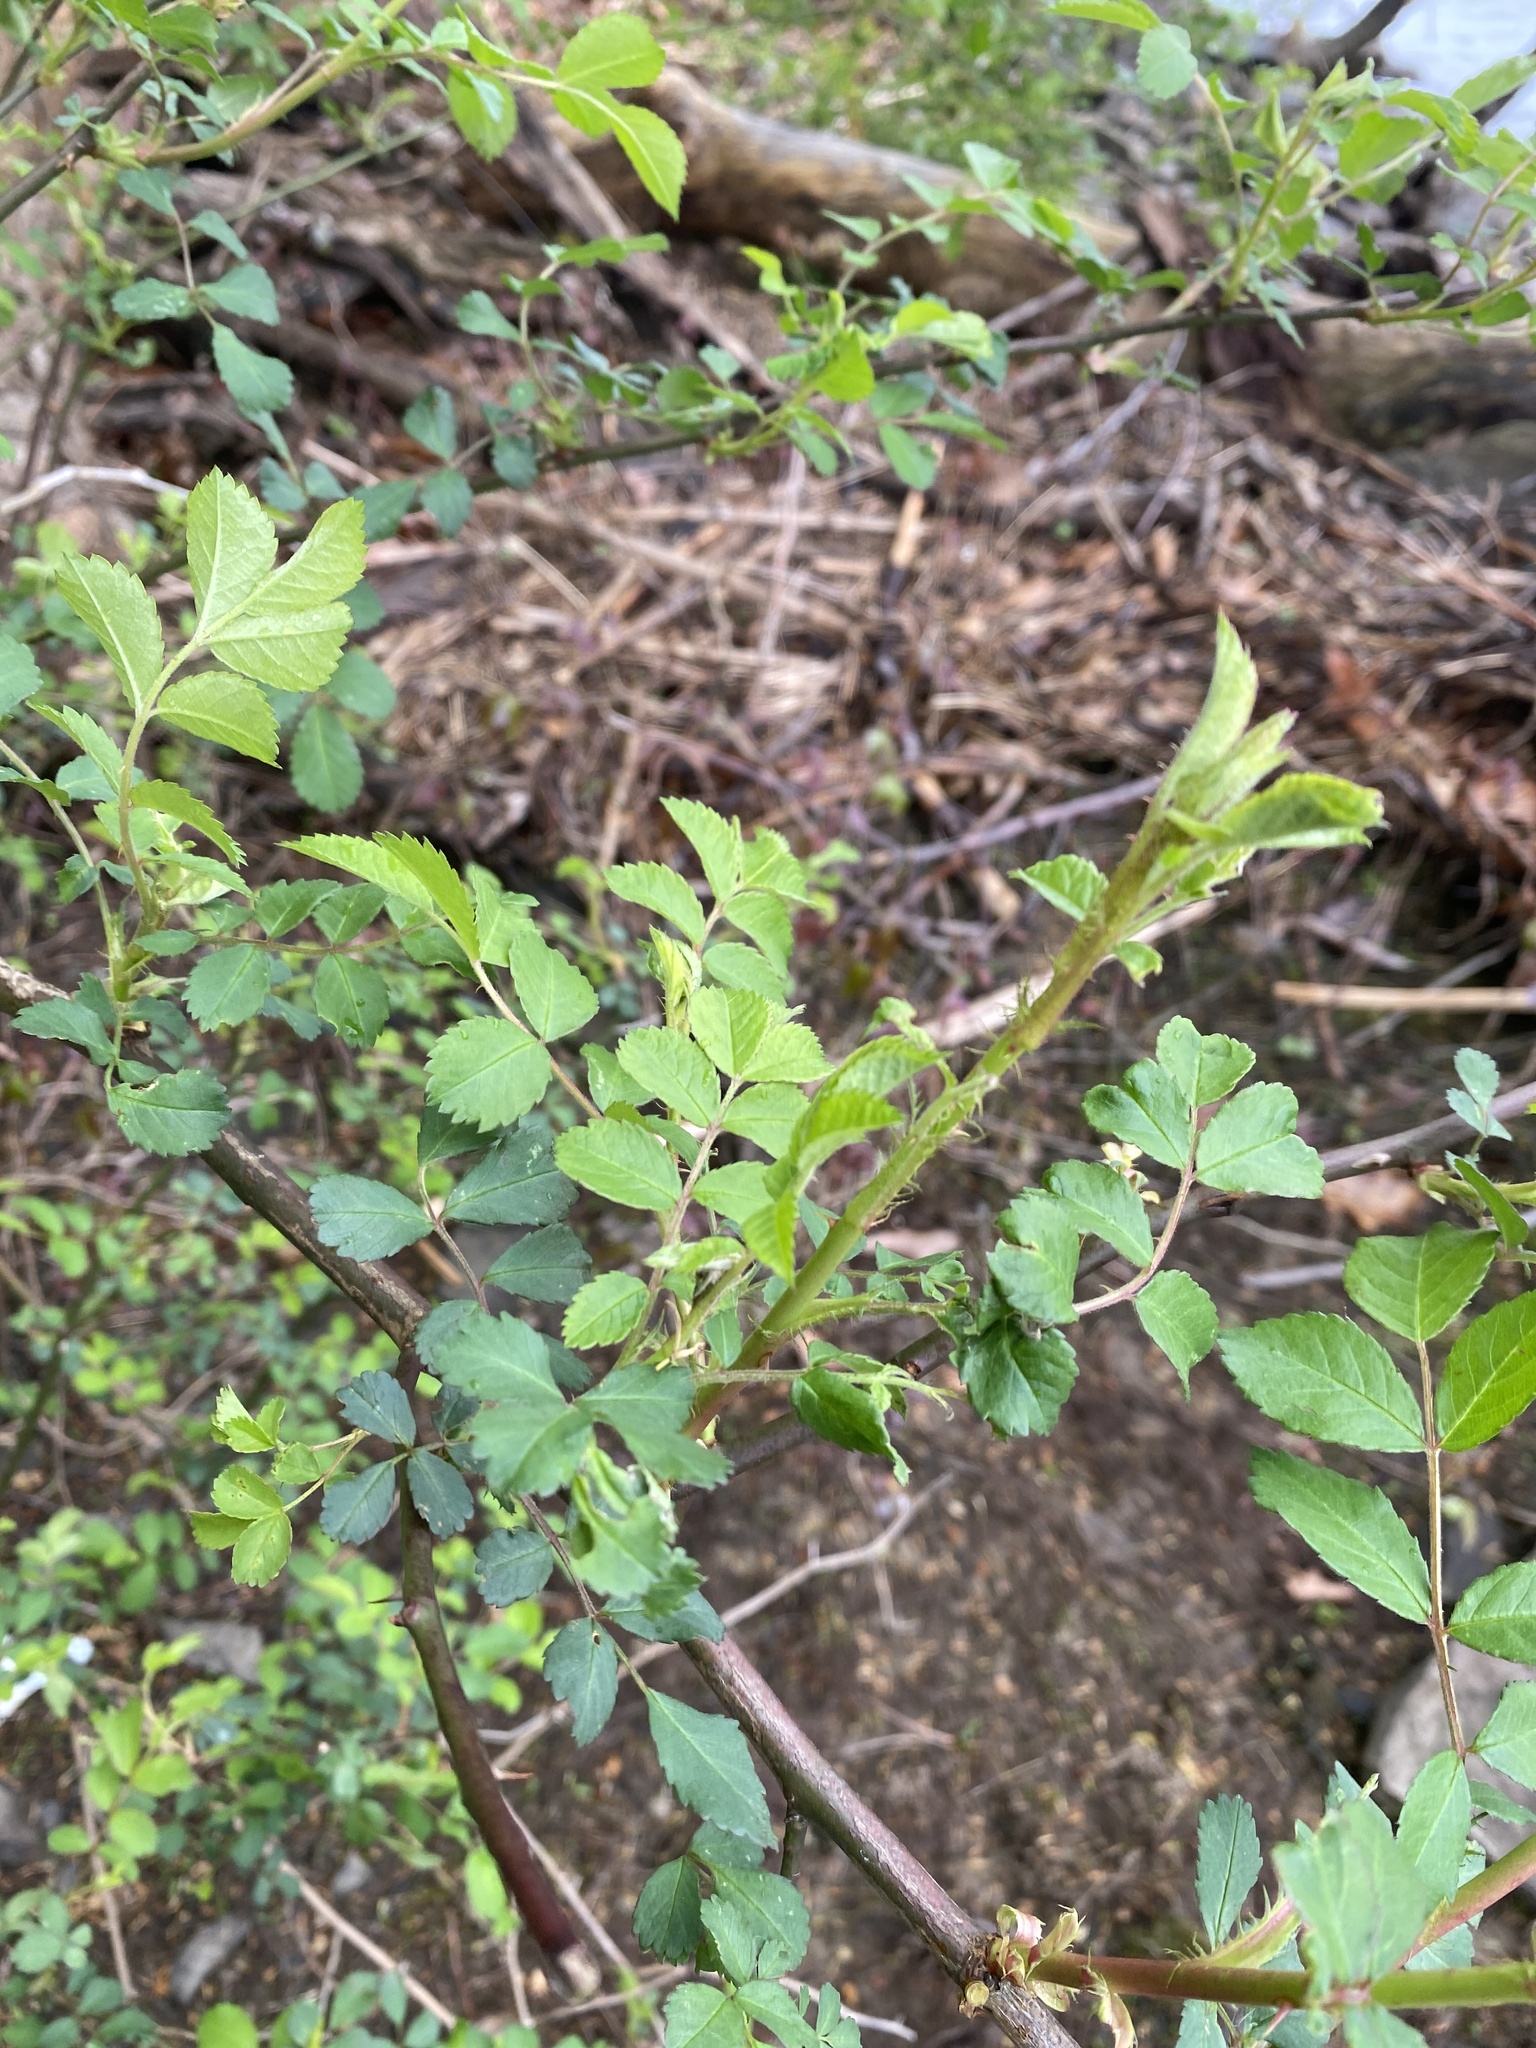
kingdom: Plantae
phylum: Tracheophyta
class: Magnoliopsida
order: Rosales
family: Rosaceae
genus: Rosa
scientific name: Rosa multiflora
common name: Multiflora rose
